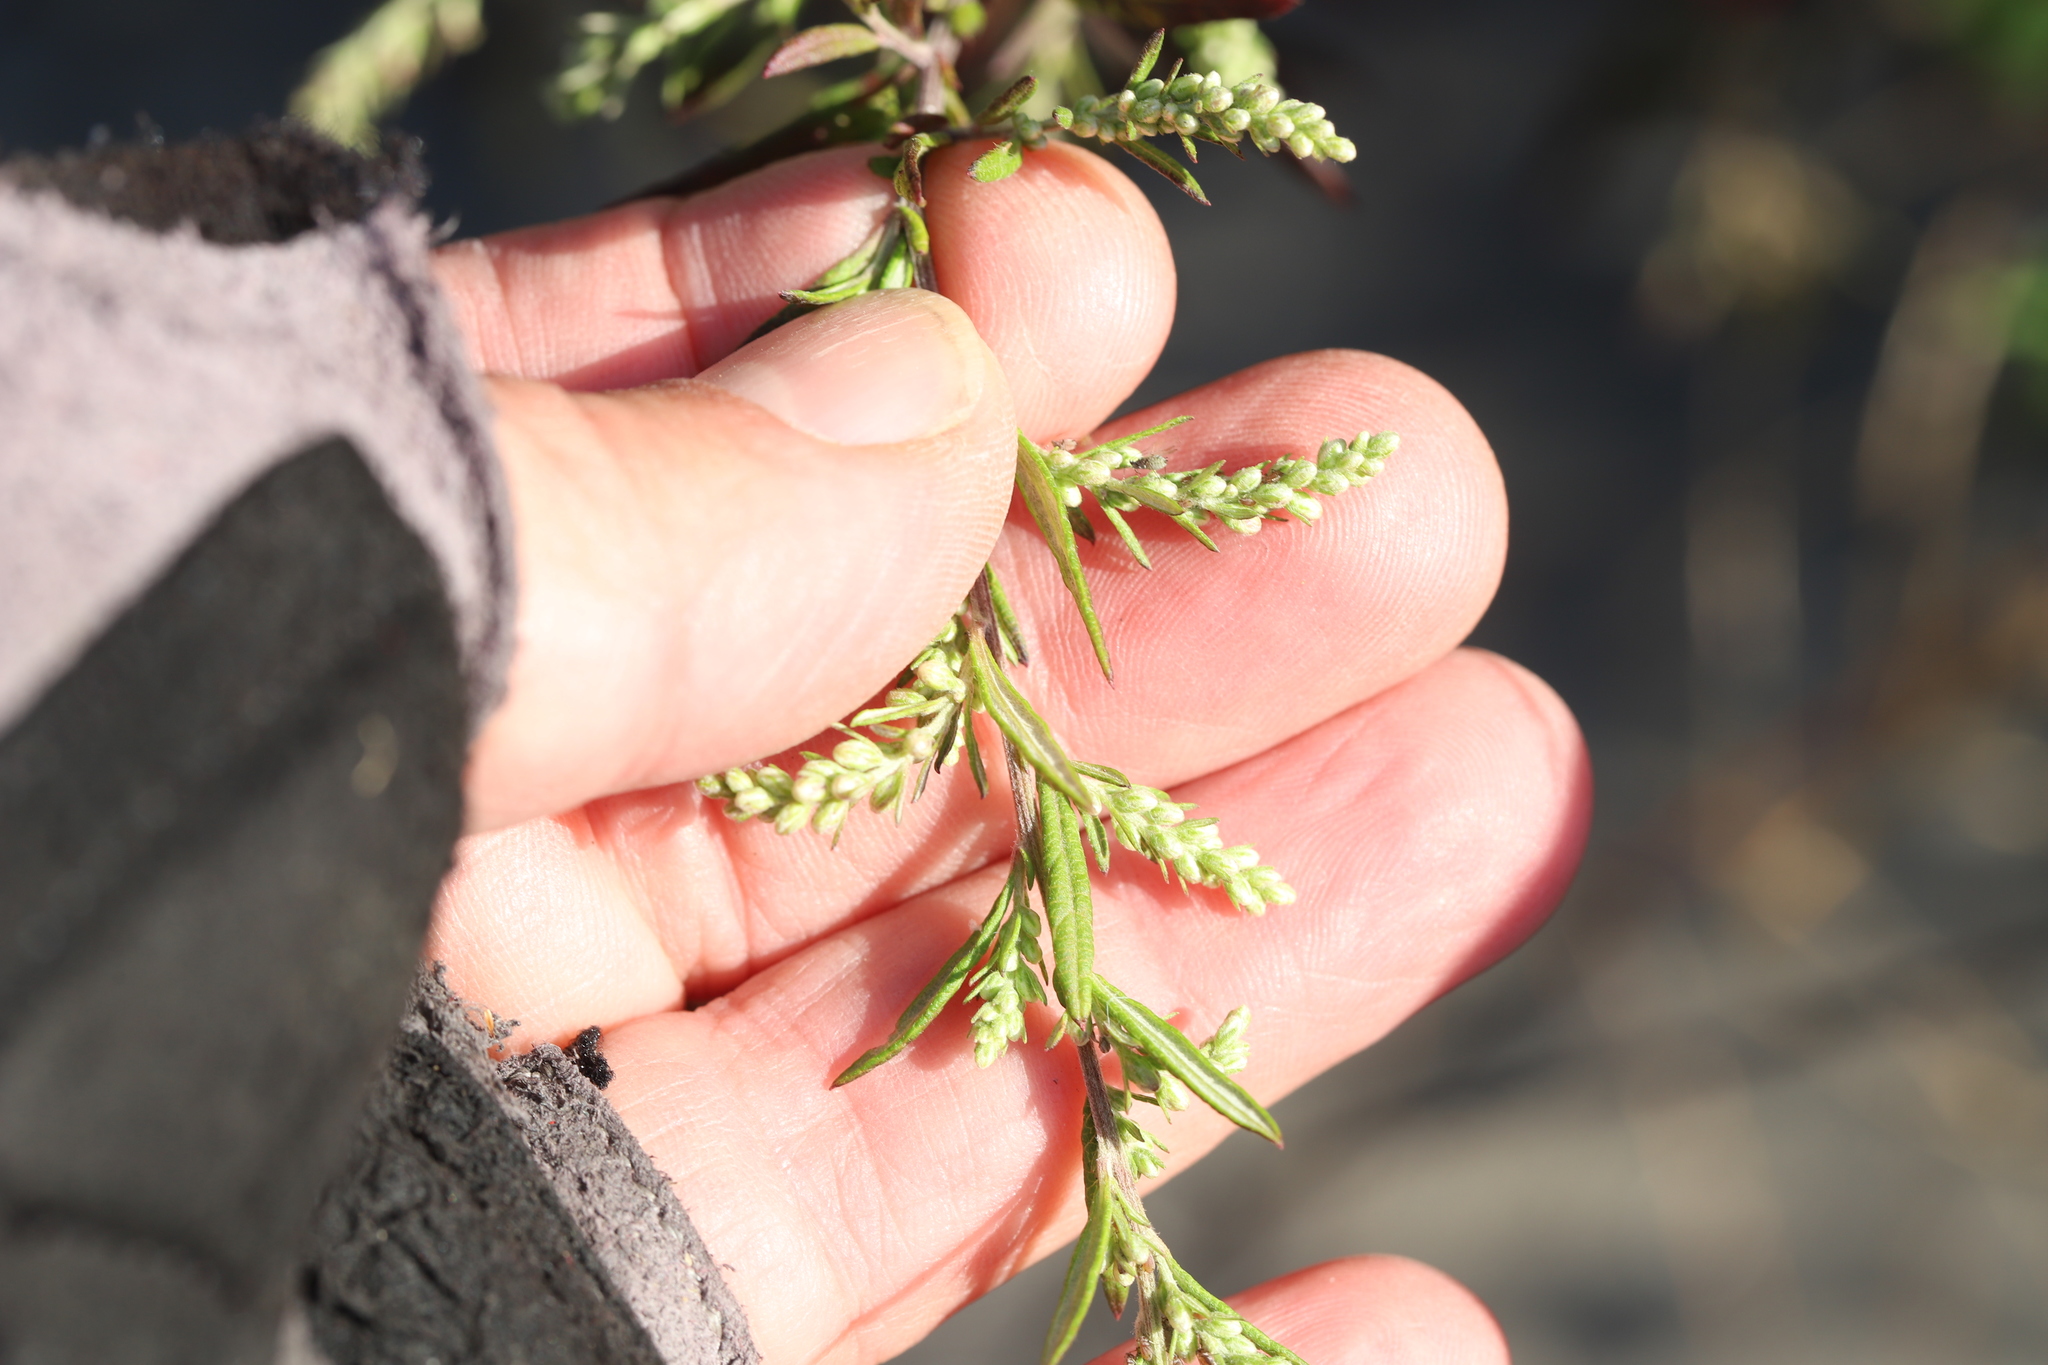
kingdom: Plantae
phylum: Tracheophyta
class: Magnoliopsida
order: Asterales
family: Asteraceae
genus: Artemisia
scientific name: Artemisia vulgaris
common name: Mugwort
